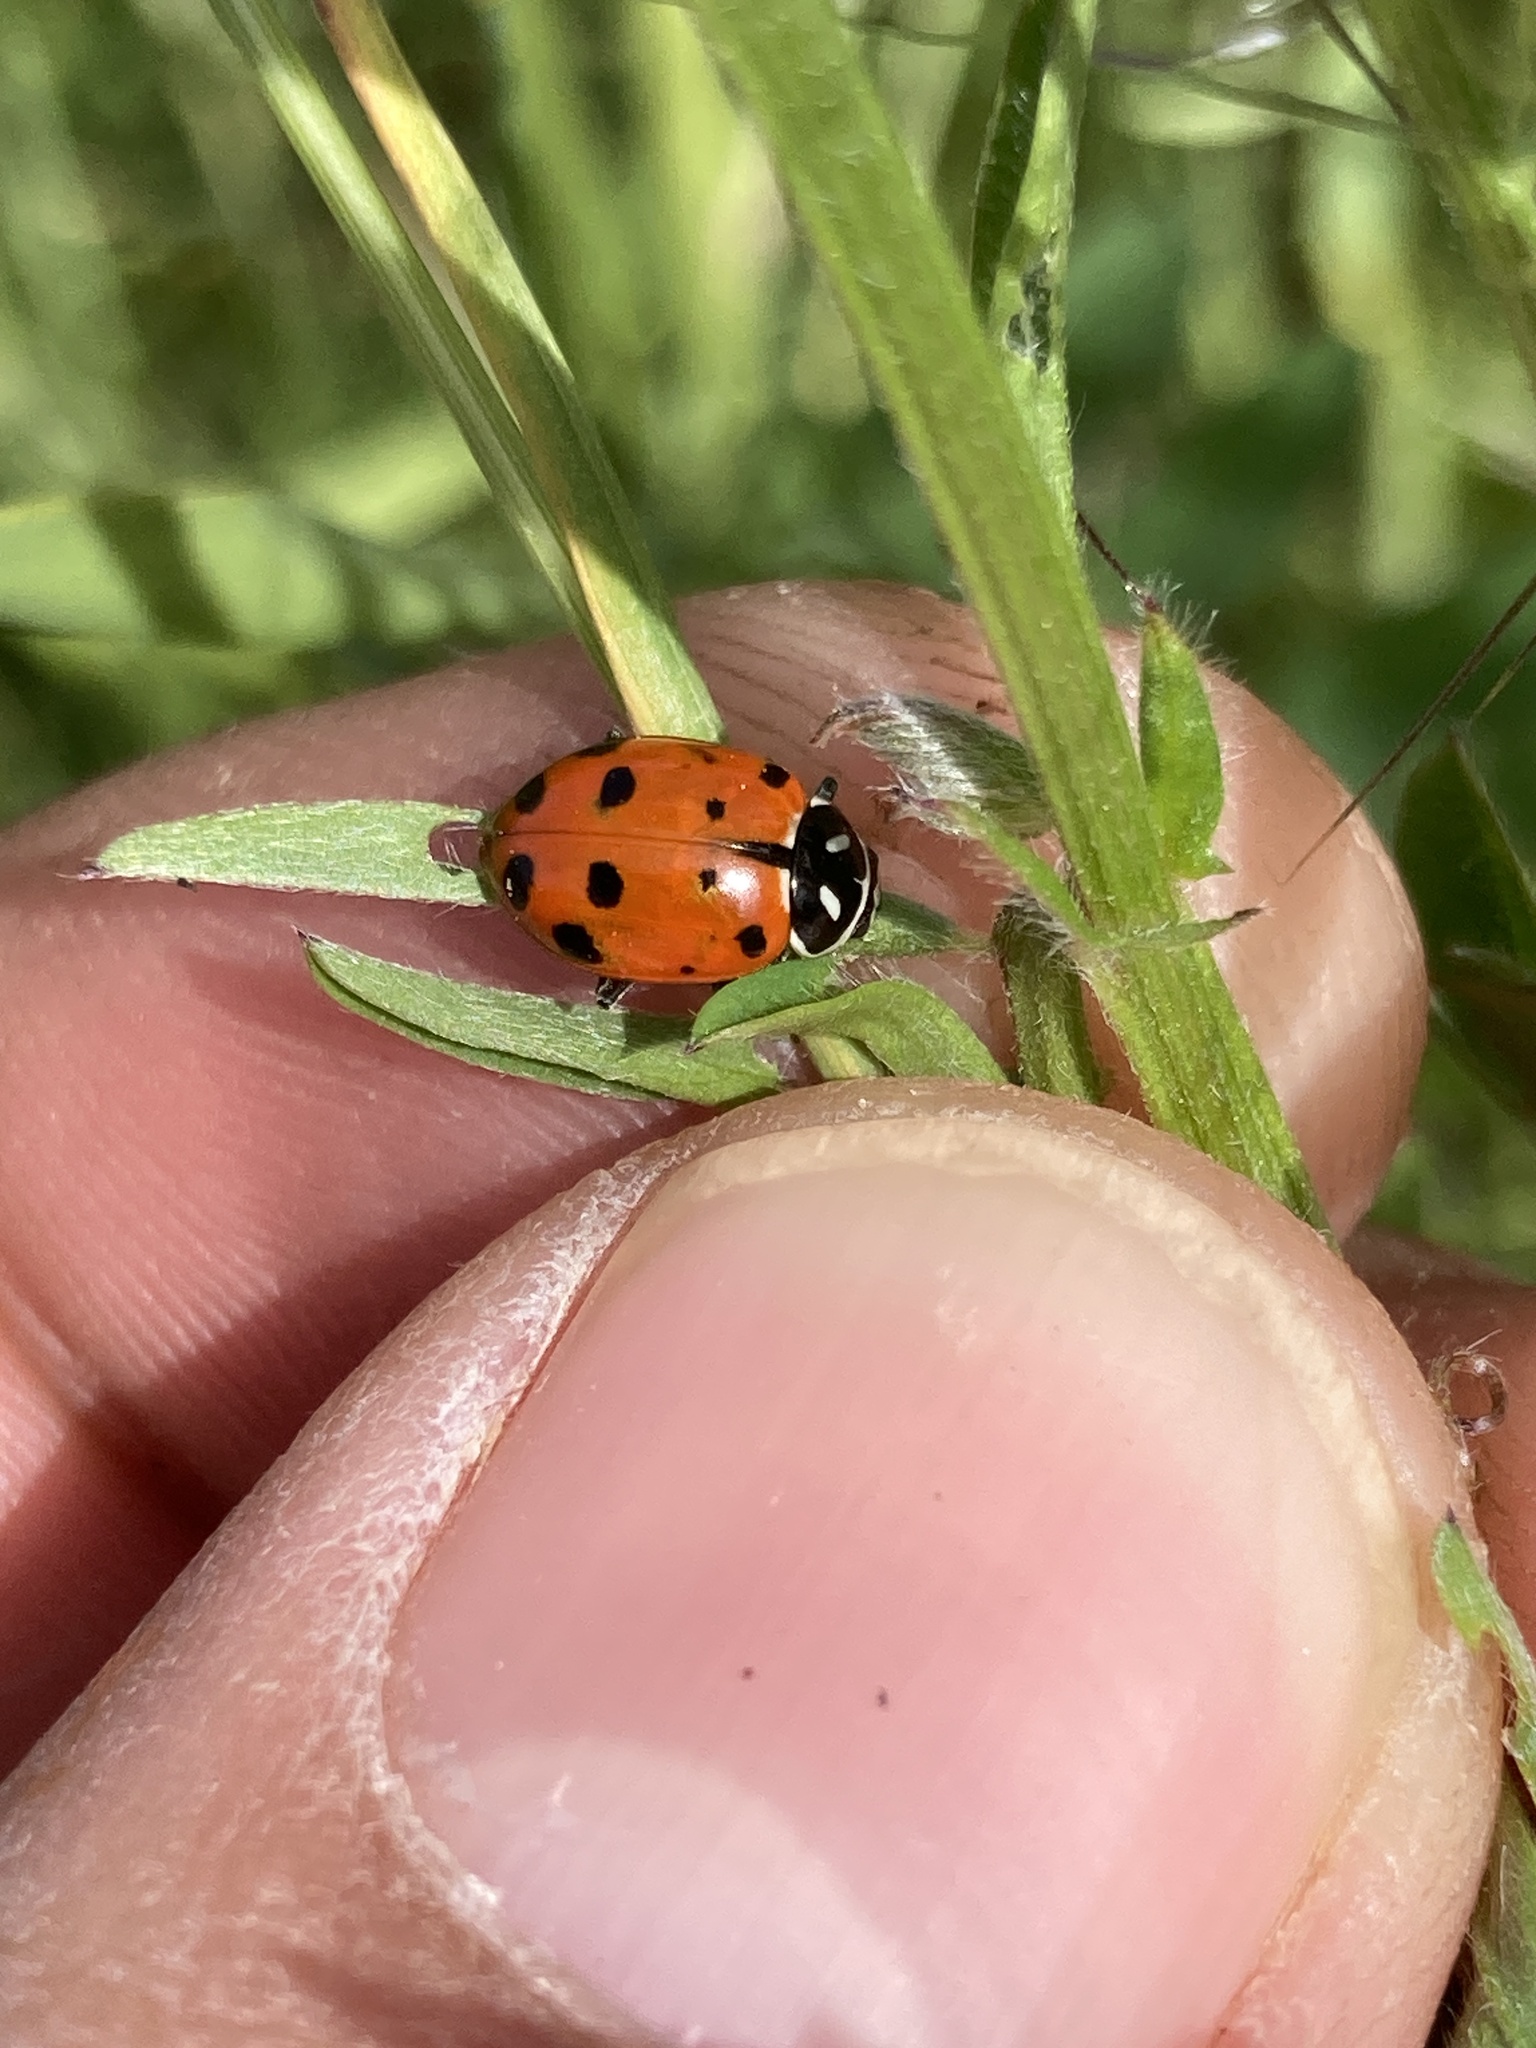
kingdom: Animalia
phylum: Arthropoda
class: Insecta
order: Coleoptera
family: Coccinellidae
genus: Hippodamia
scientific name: Hippodamia convergens
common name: Convergent lady beetle
